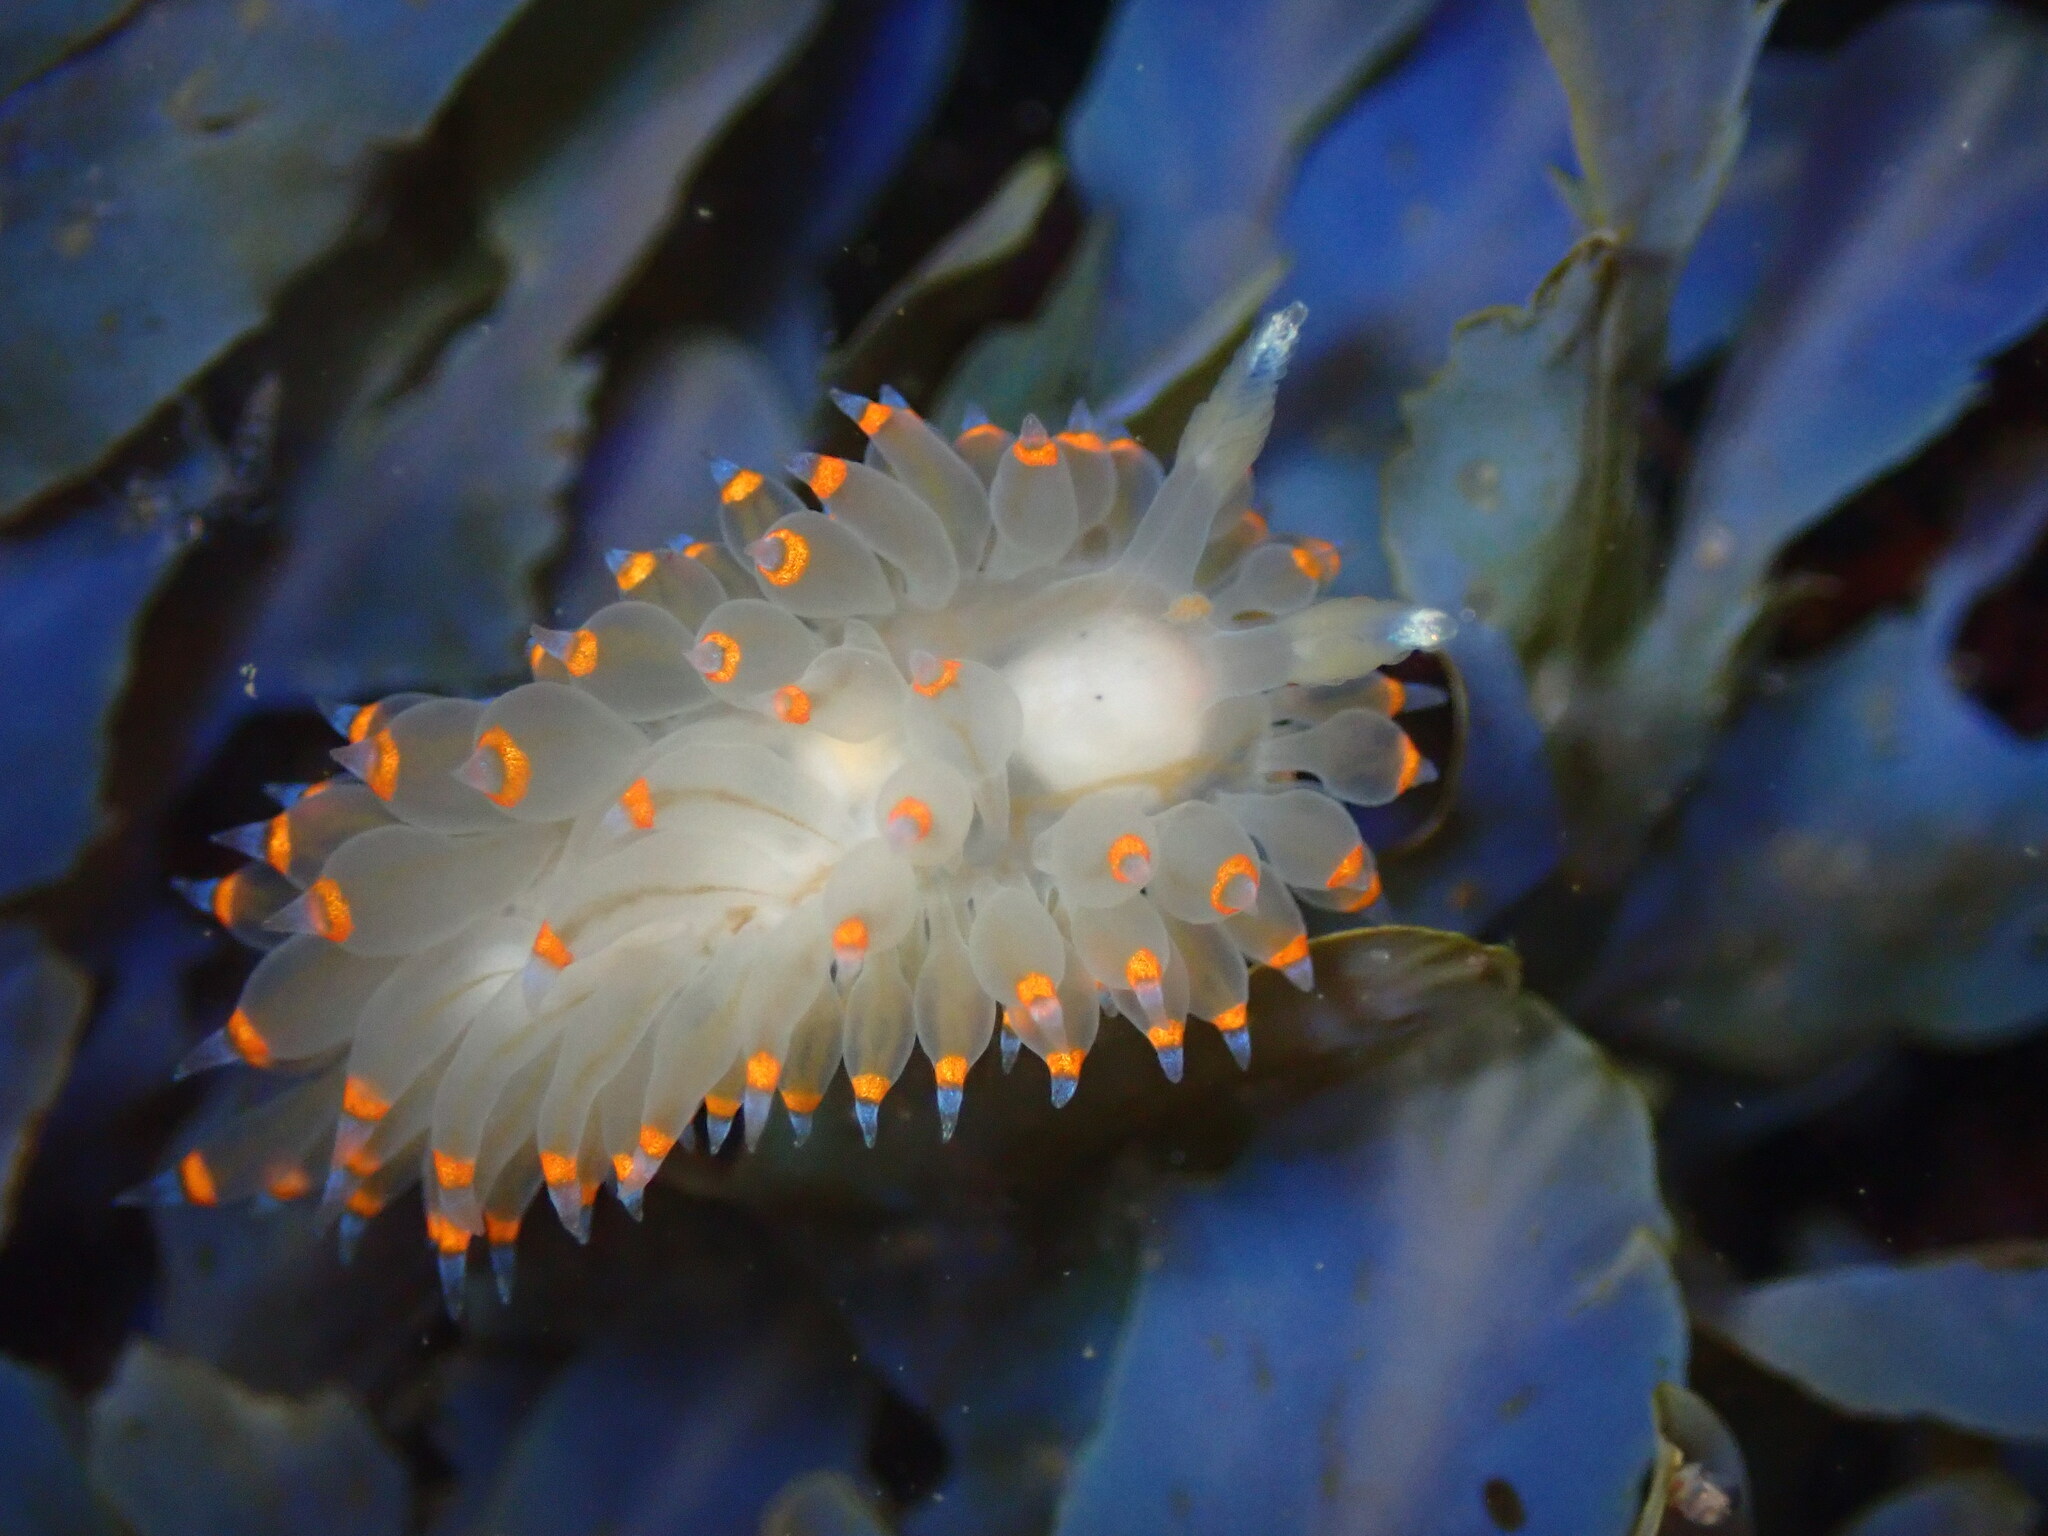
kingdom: Animalia
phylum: Mollusca
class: Gastropoda
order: Nudibranchia
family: Janolidae
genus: Antiopella
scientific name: Antiopella barbarensis
